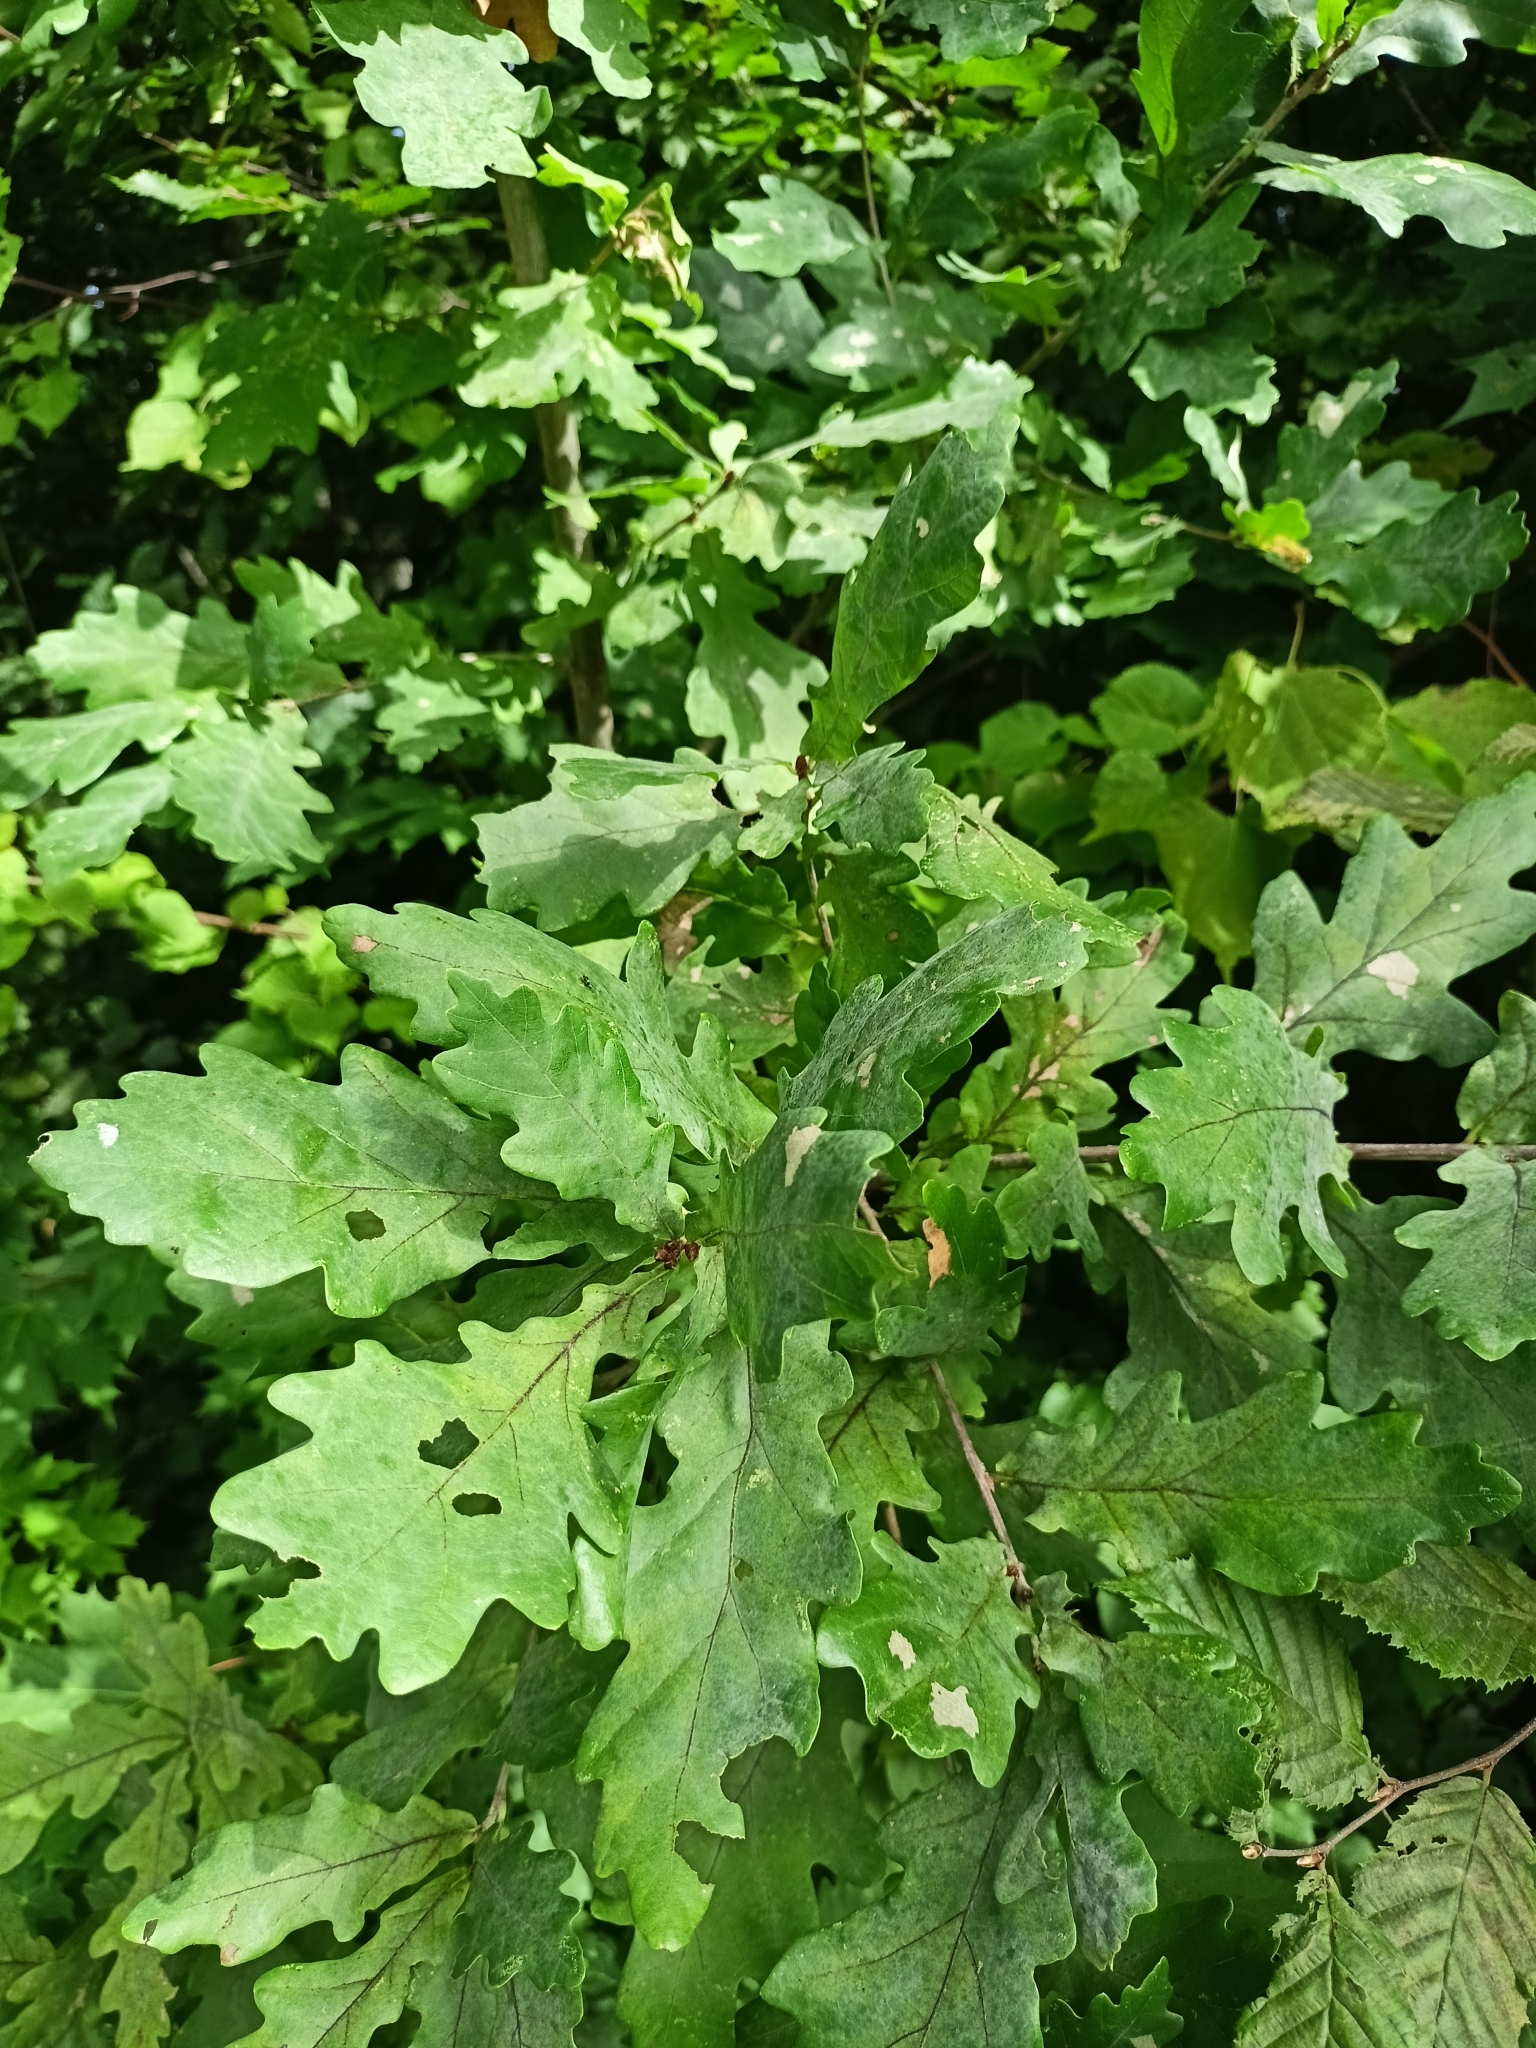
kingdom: Plantae
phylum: Tracheophyta
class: Magnoliopsida
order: Fagales
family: Fagaceae
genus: Quercus
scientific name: Quercus robur
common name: Pedunculate oak
